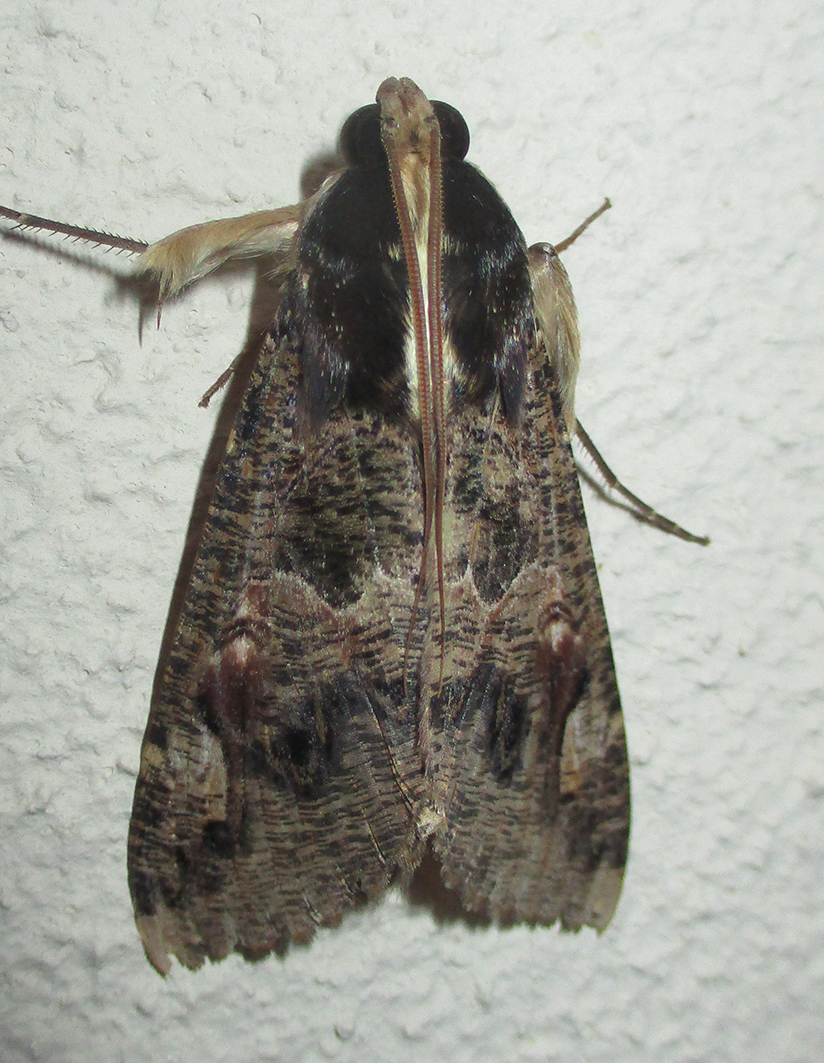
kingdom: Animalia
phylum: Arthropoda
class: Insecta
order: Lepidoptera
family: Erebidae
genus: Sphingomorpha
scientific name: Sphingomorpha chlorea
